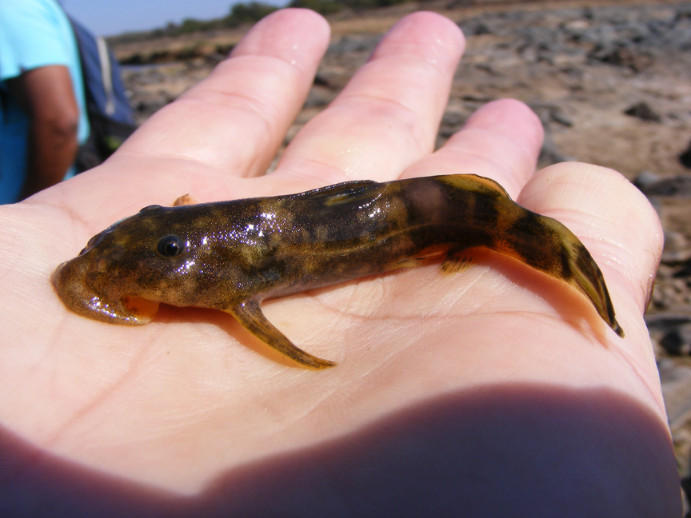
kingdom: Animalia
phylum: Chordata
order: Siluriformes
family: Mochokidae
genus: Chiloglanis
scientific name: Chiloglanis paratus
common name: Sawfin catlet
